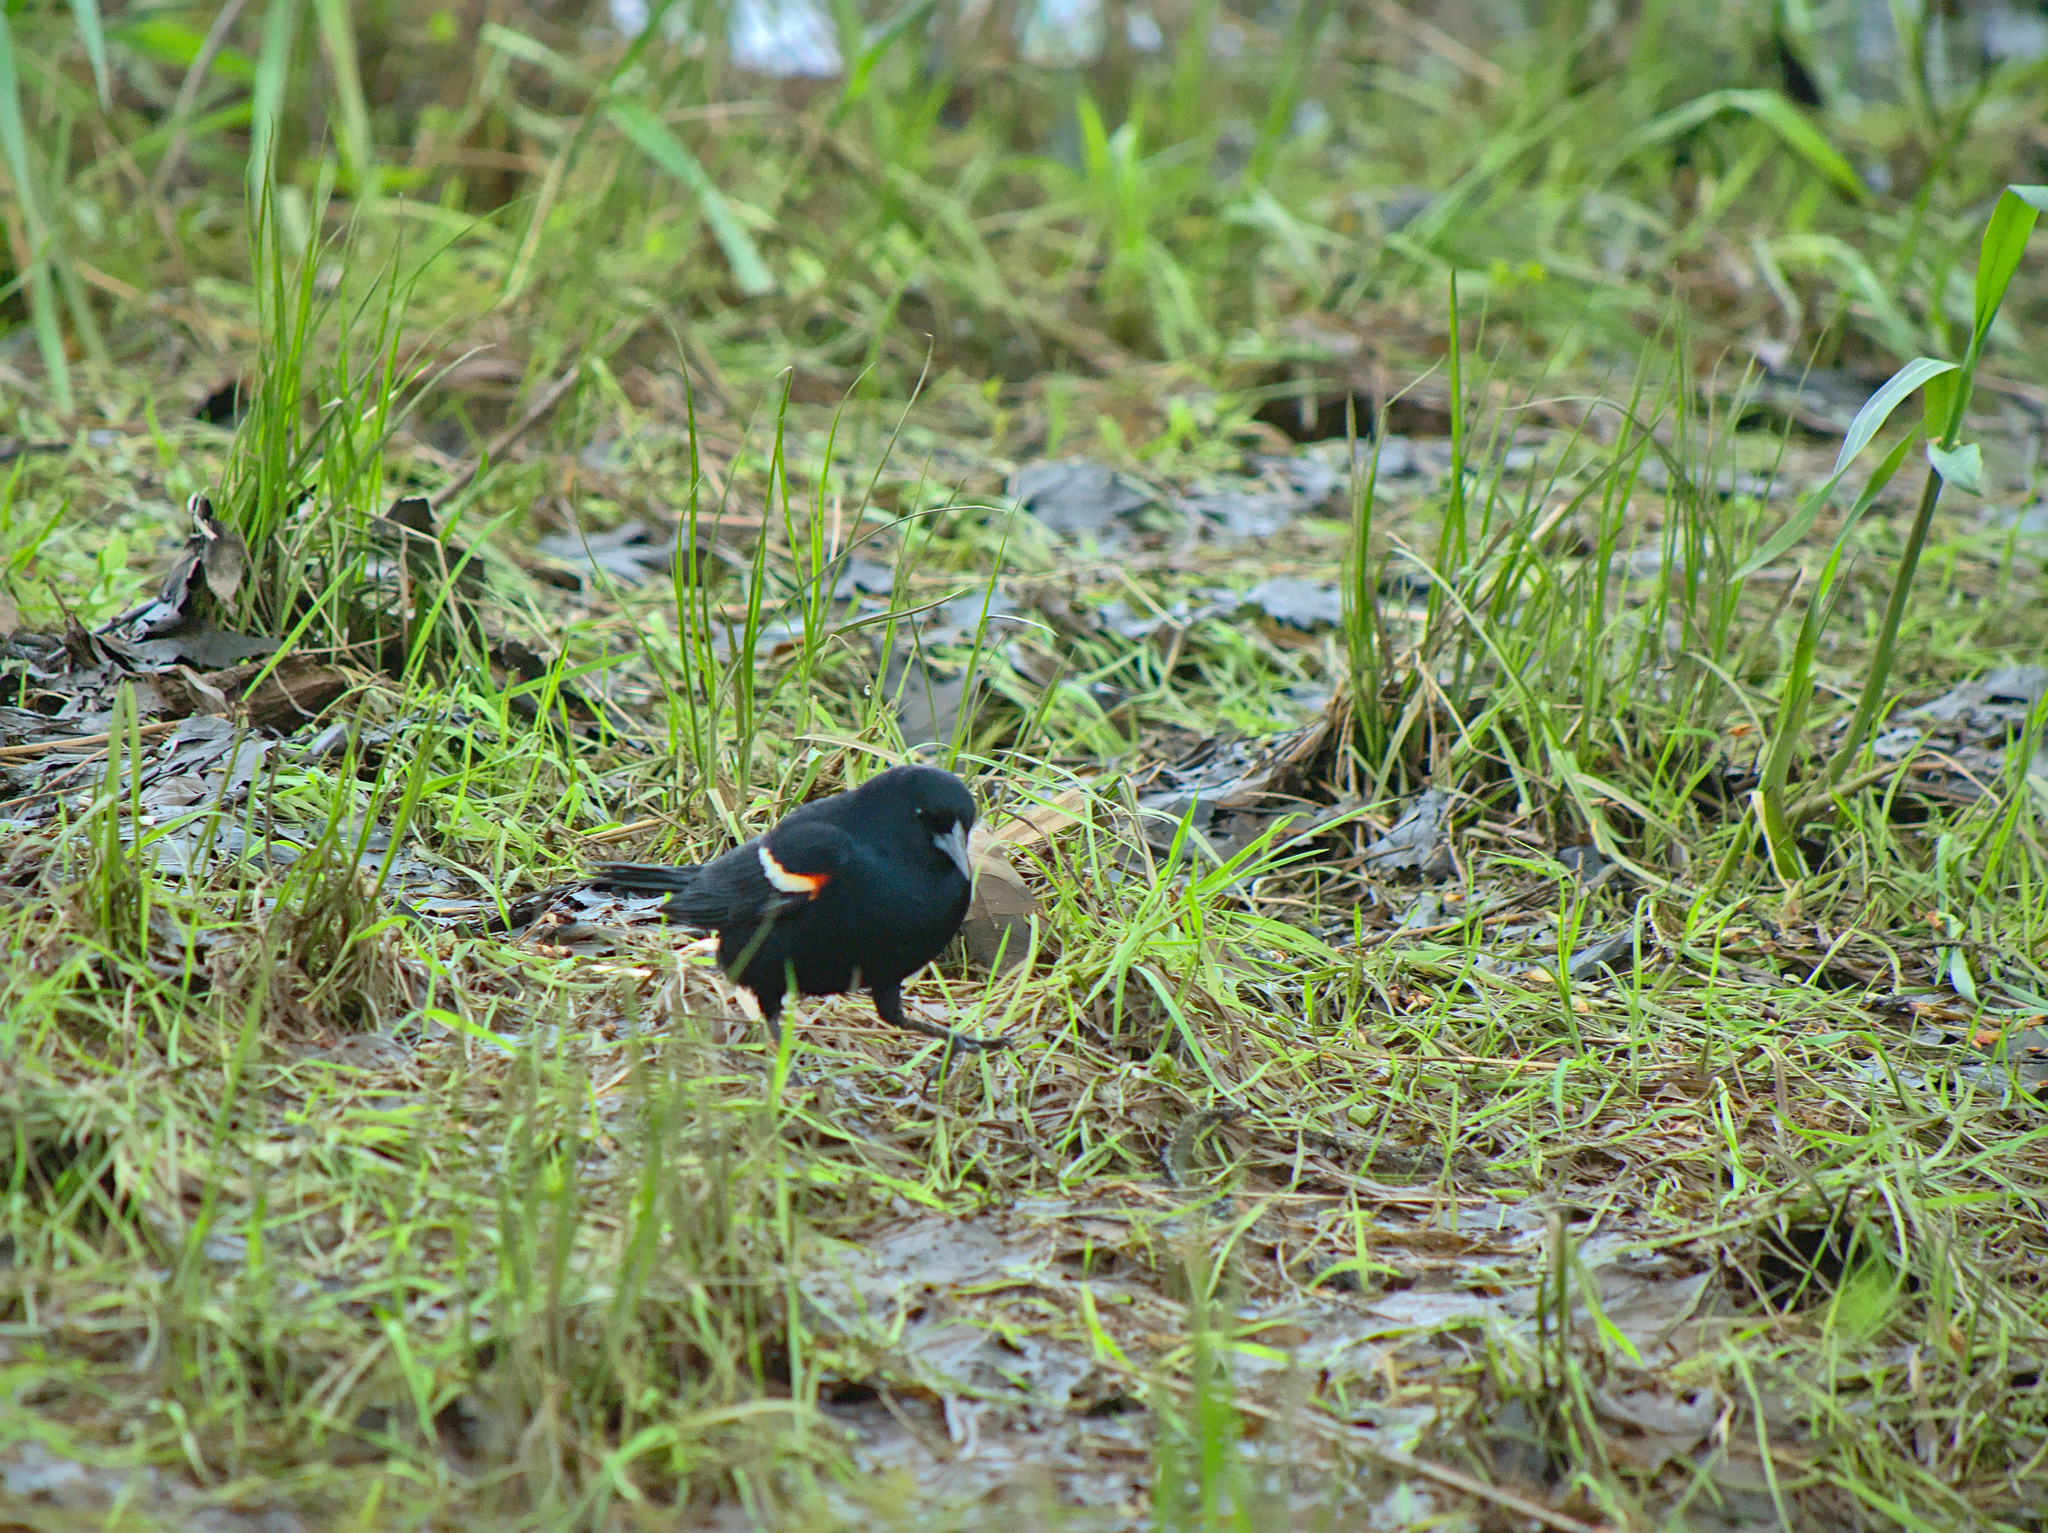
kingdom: Animalia
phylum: Chordata
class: Aves
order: Passeriformes
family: Icteridae
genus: Agelaius
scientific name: Agelaius phoeniceus
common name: Red-winged blackbird
